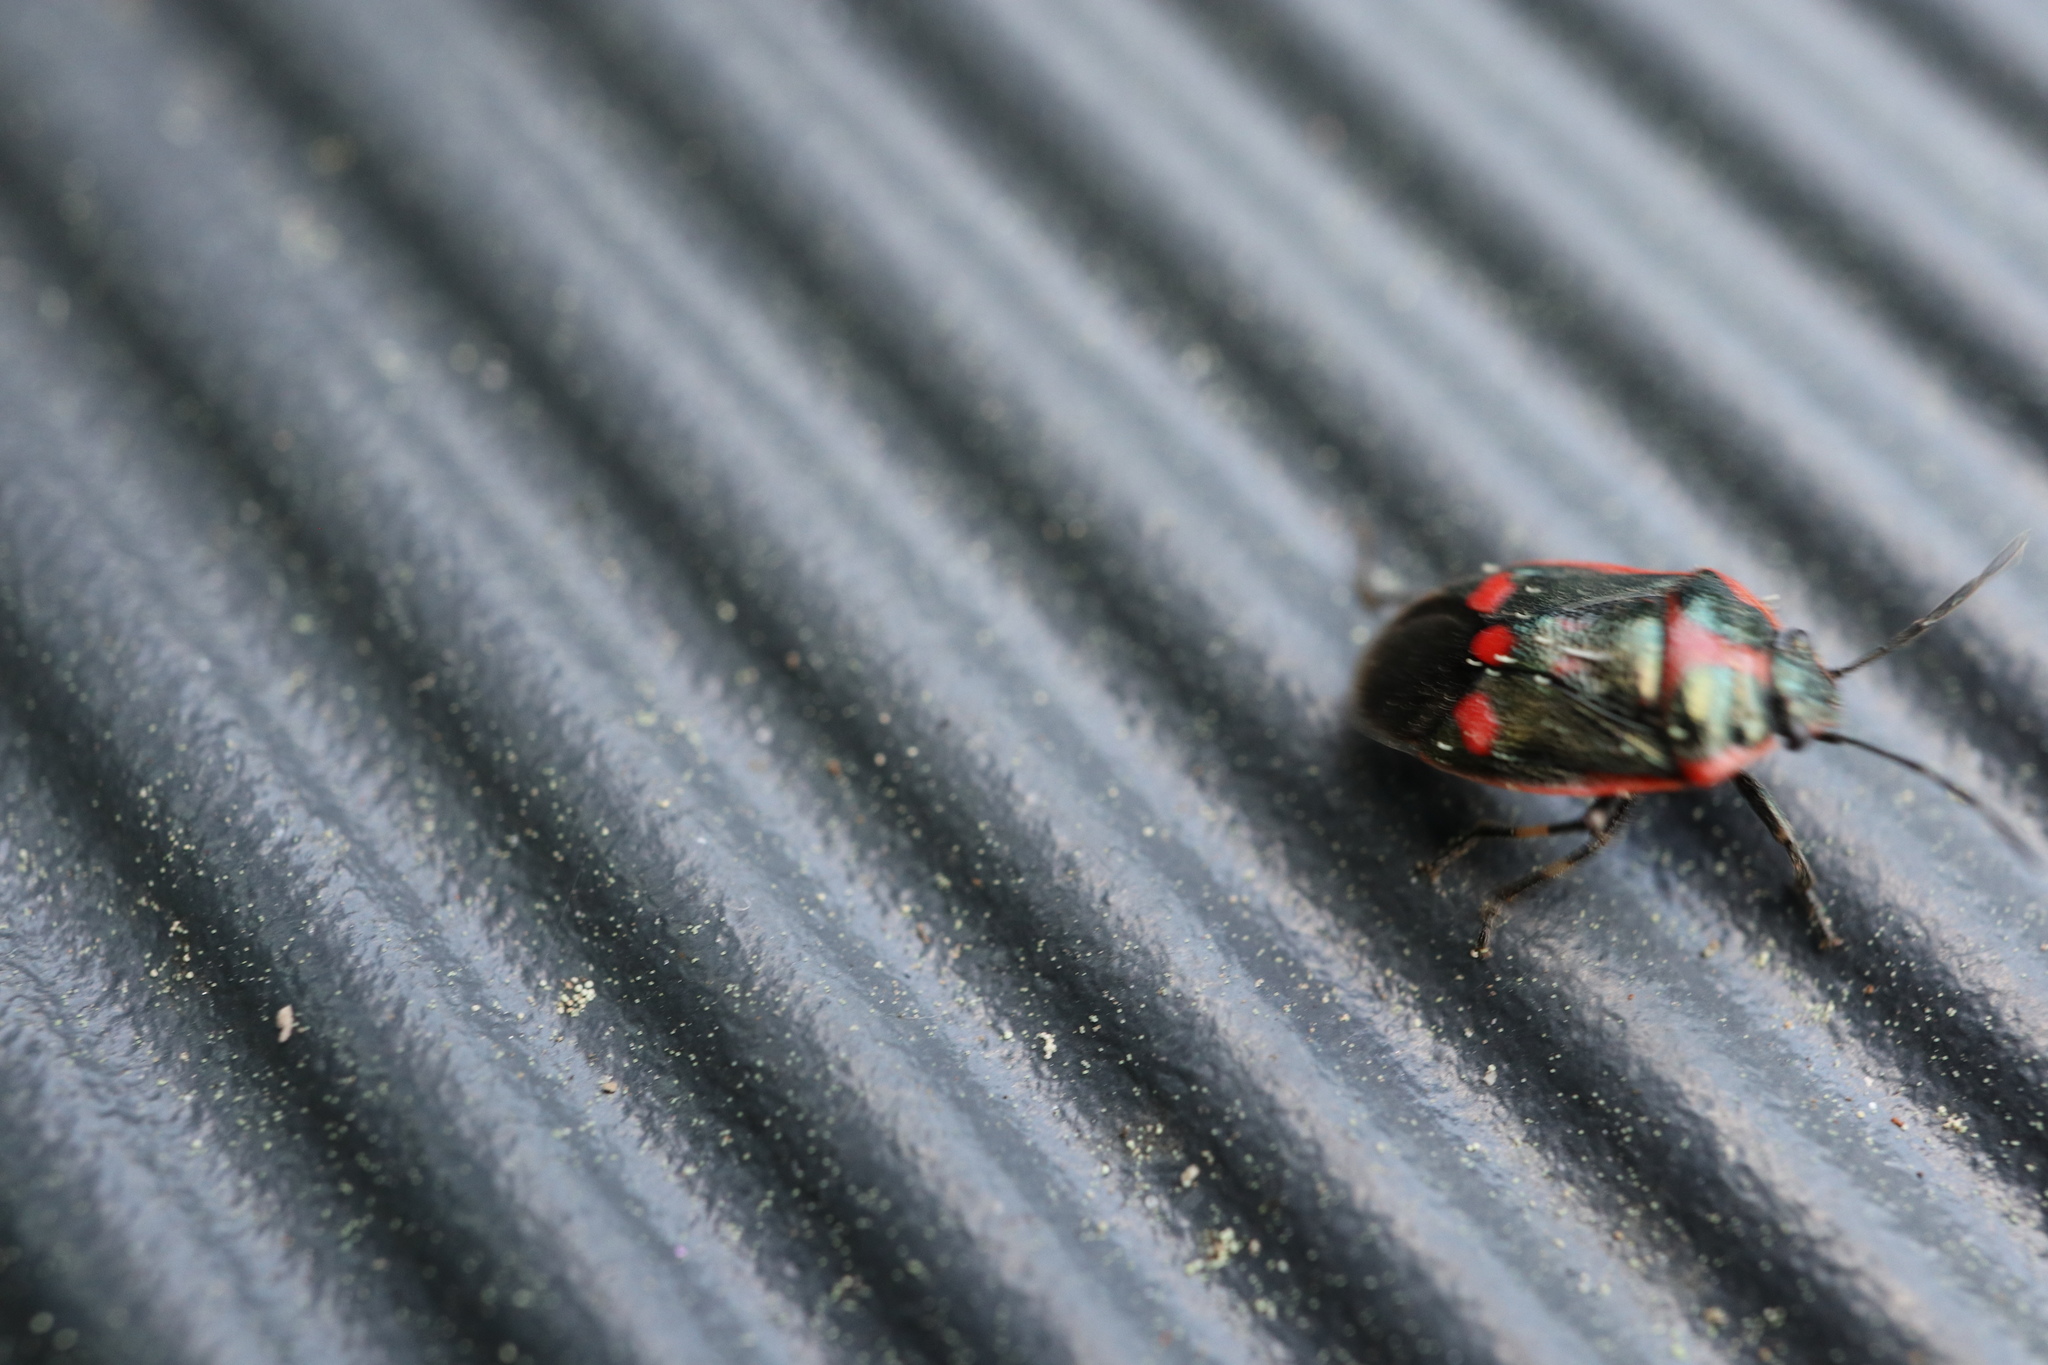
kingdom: Animalia
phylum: Arthropoda
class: Insecta
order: Hemiptera
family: Pentatomidae
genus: Eurydema
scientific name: Eurydema oleracea
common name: Cabbage bug
